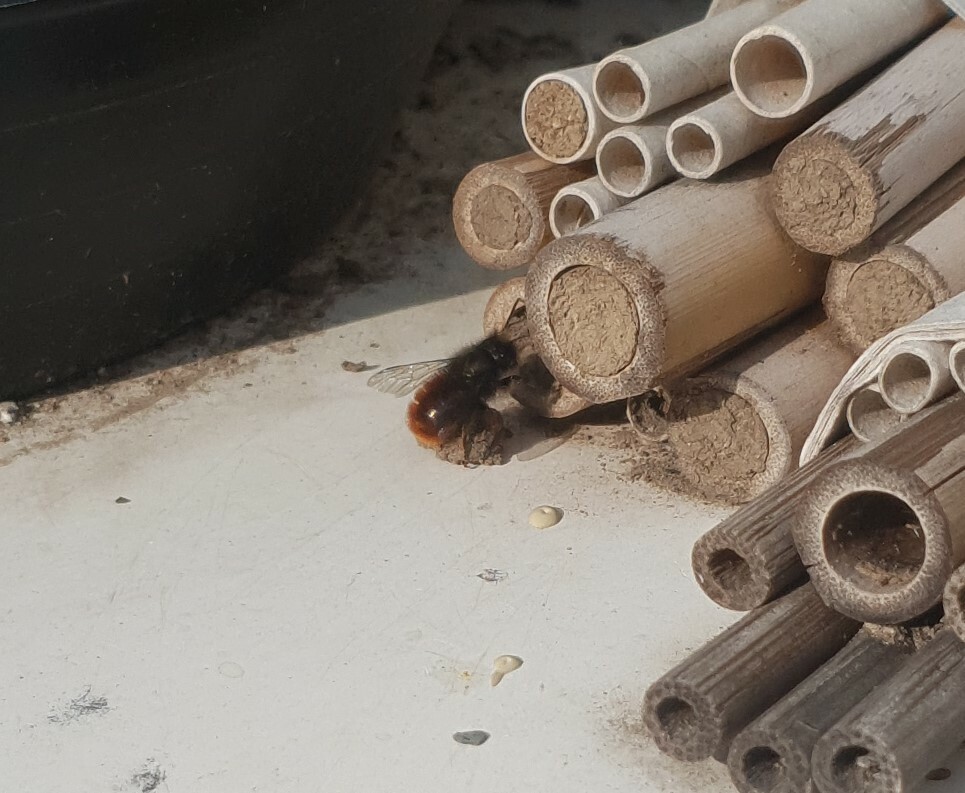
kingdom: Animalia
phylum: Arthropoda
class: Insecta
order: Hymenoptera
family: Megachilidae
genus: Osmia
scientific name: Osmia cornuta
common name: Mason bee
